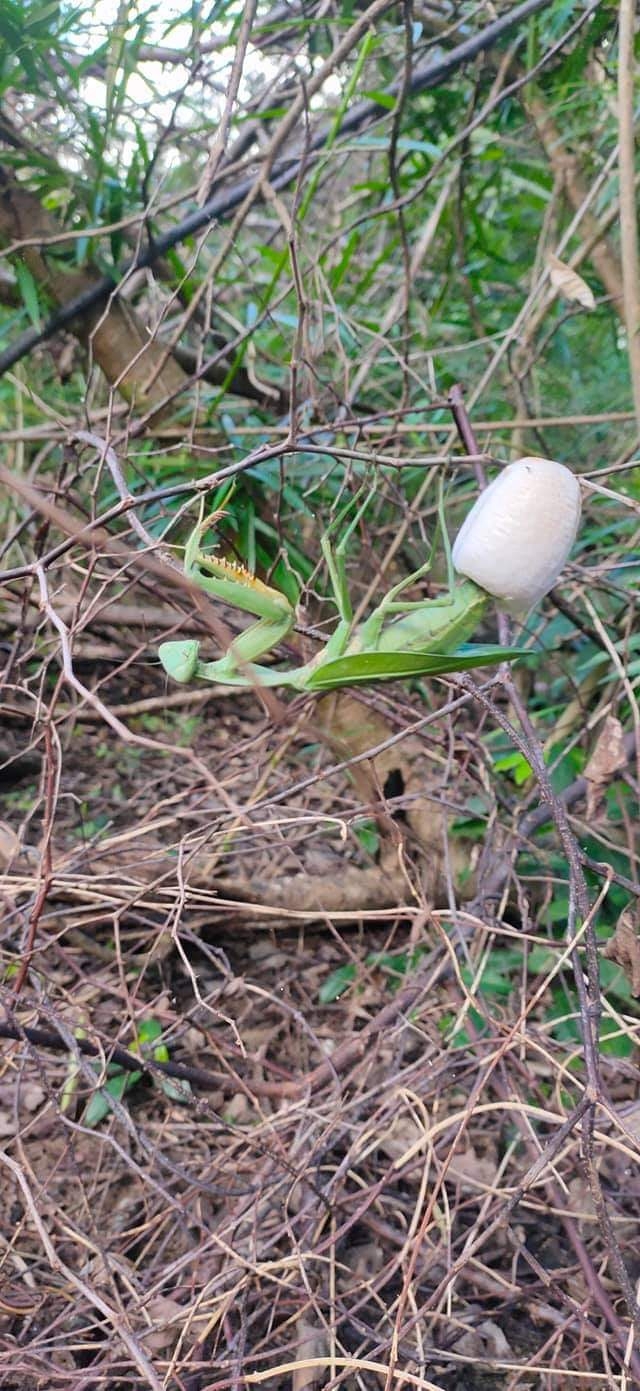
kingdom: Animalia
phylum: Arthropoda
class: Insecta
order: Mantodea
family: Mantidae
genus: Rhombodera
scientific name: Rhombodera kirbyi
